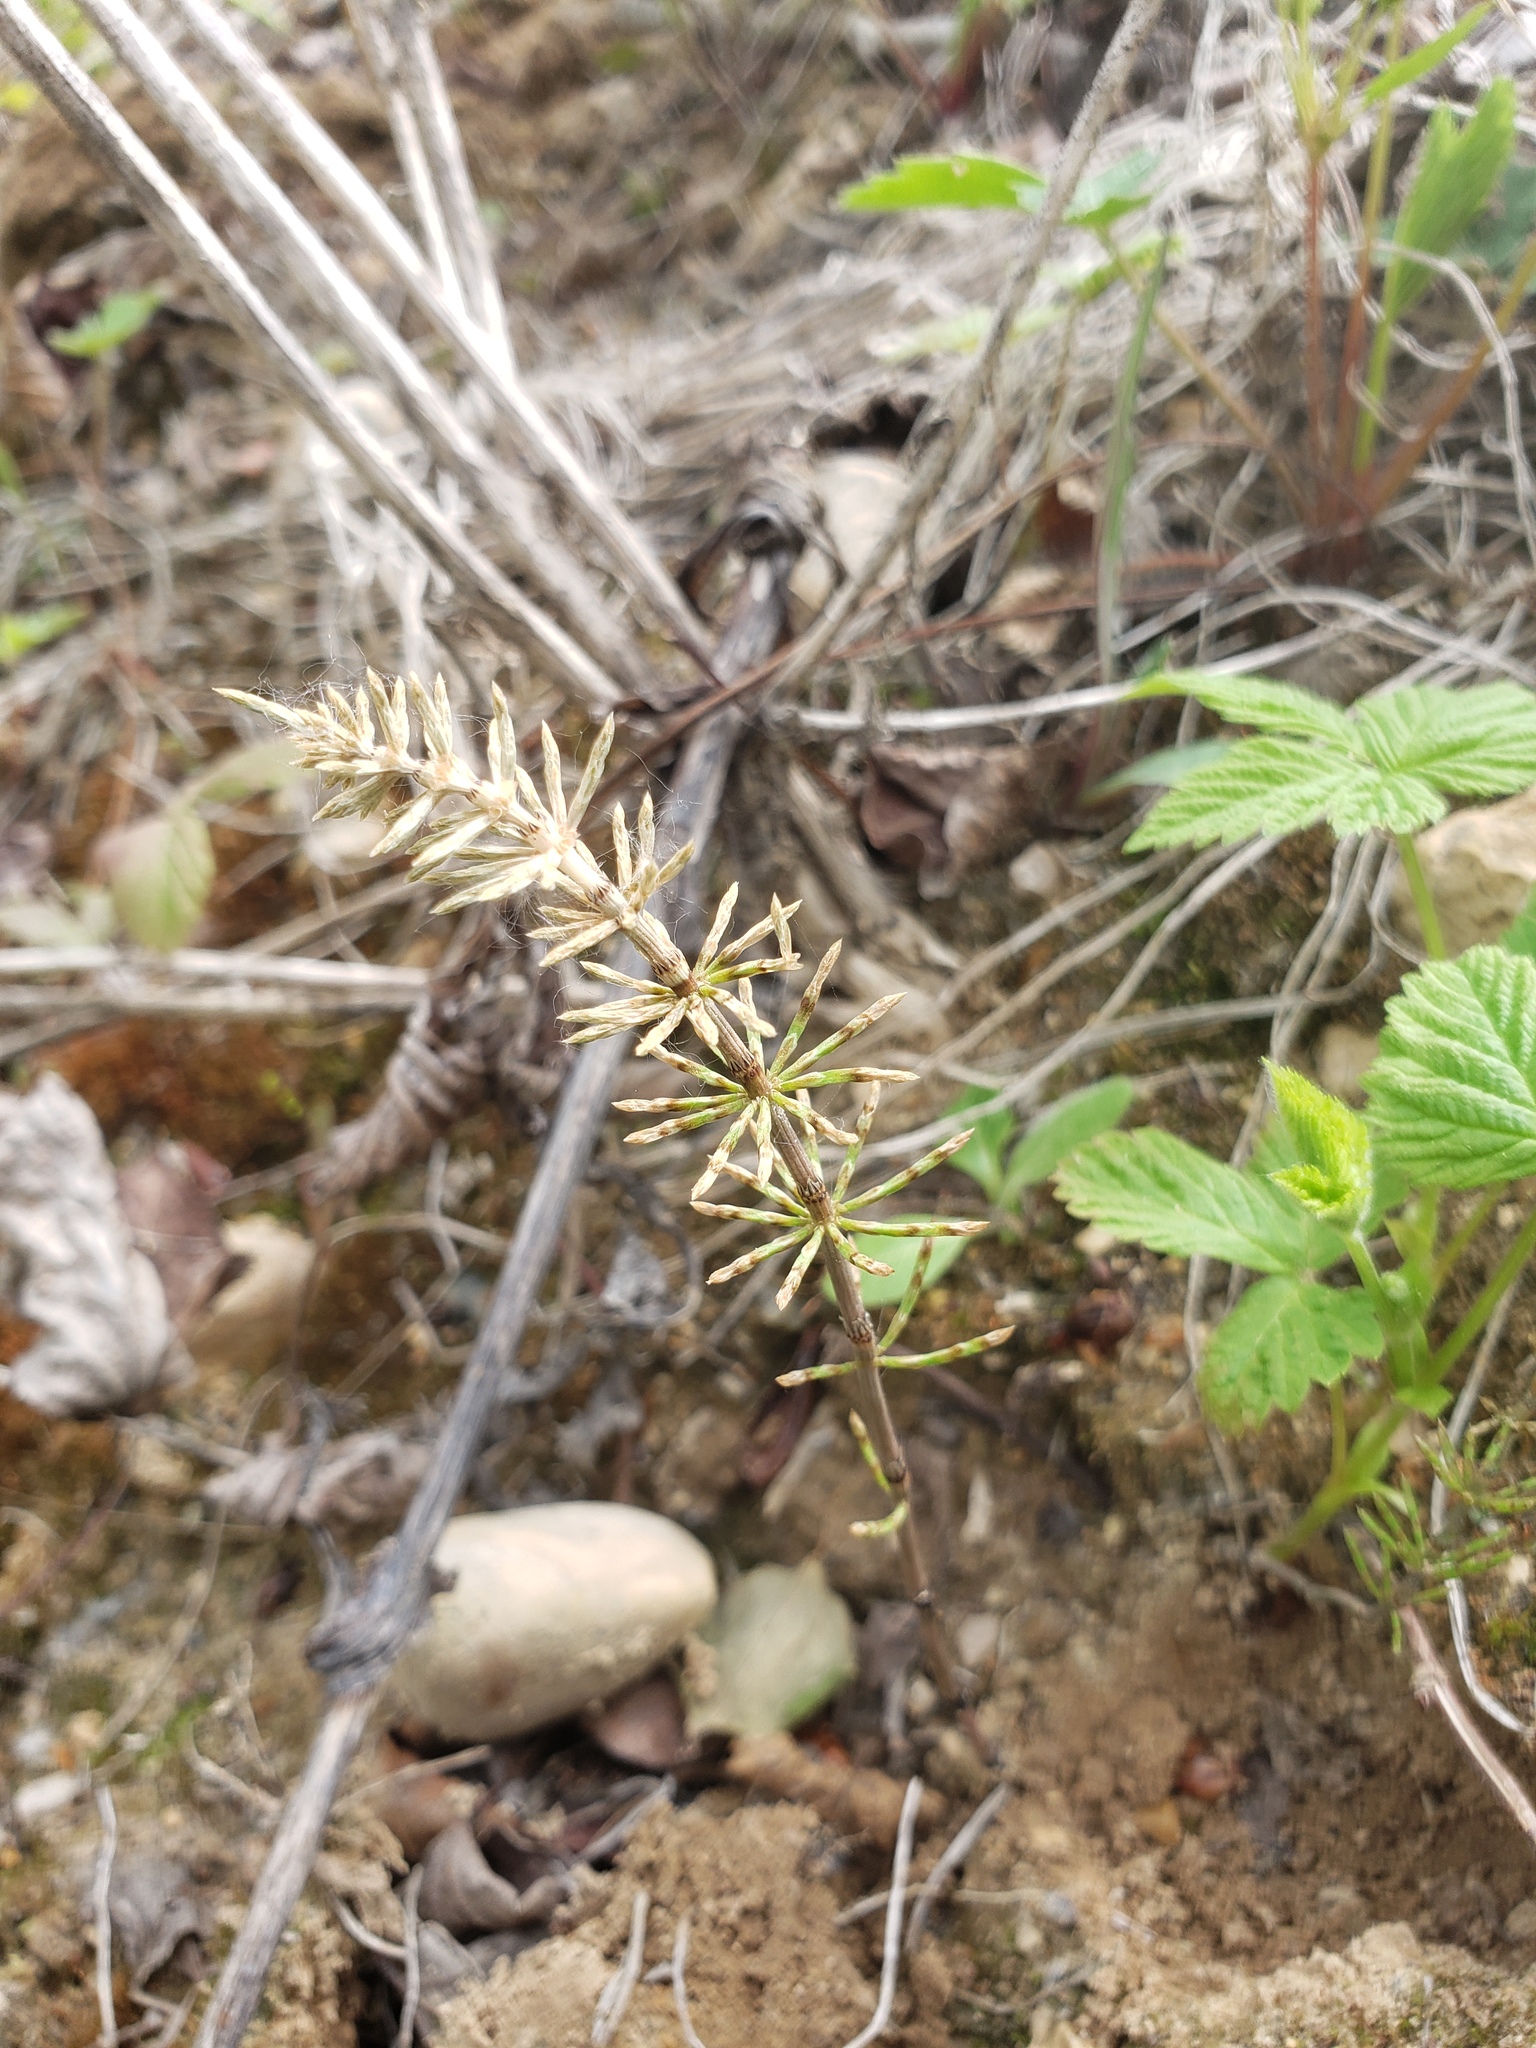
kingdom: Plantae
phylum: Tracheophyta
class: Polypodiopsida
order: Equisetales
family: Equisetaceae
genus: Equisetum
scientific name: Equisetum pratense
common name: Meadow horsetail
